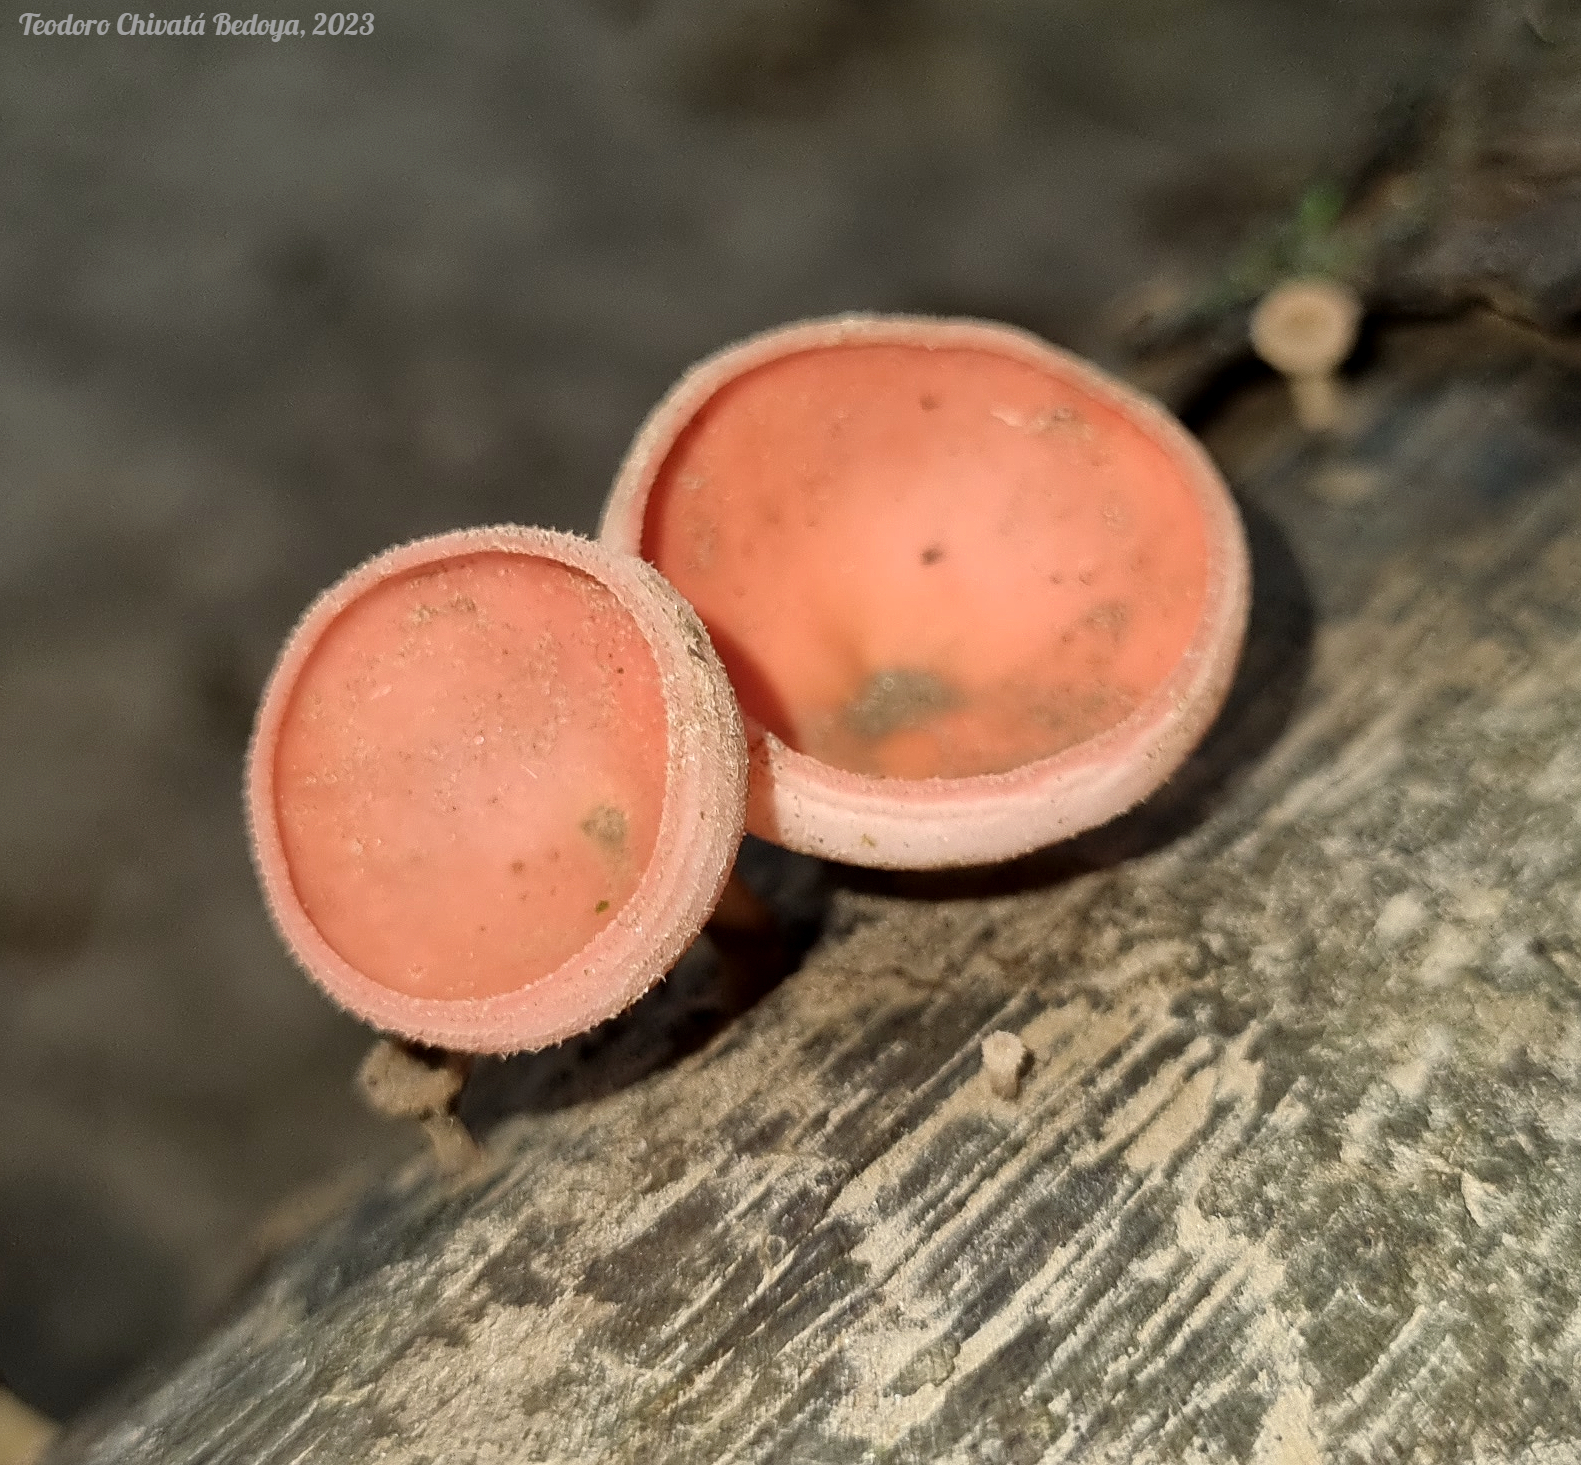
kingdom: Fungi
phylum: Ascomycota
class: Pezizomycetes
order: Pezizales
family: Sarcoscyphaceae
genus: Cookeina
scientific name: Cookeina speciosa
